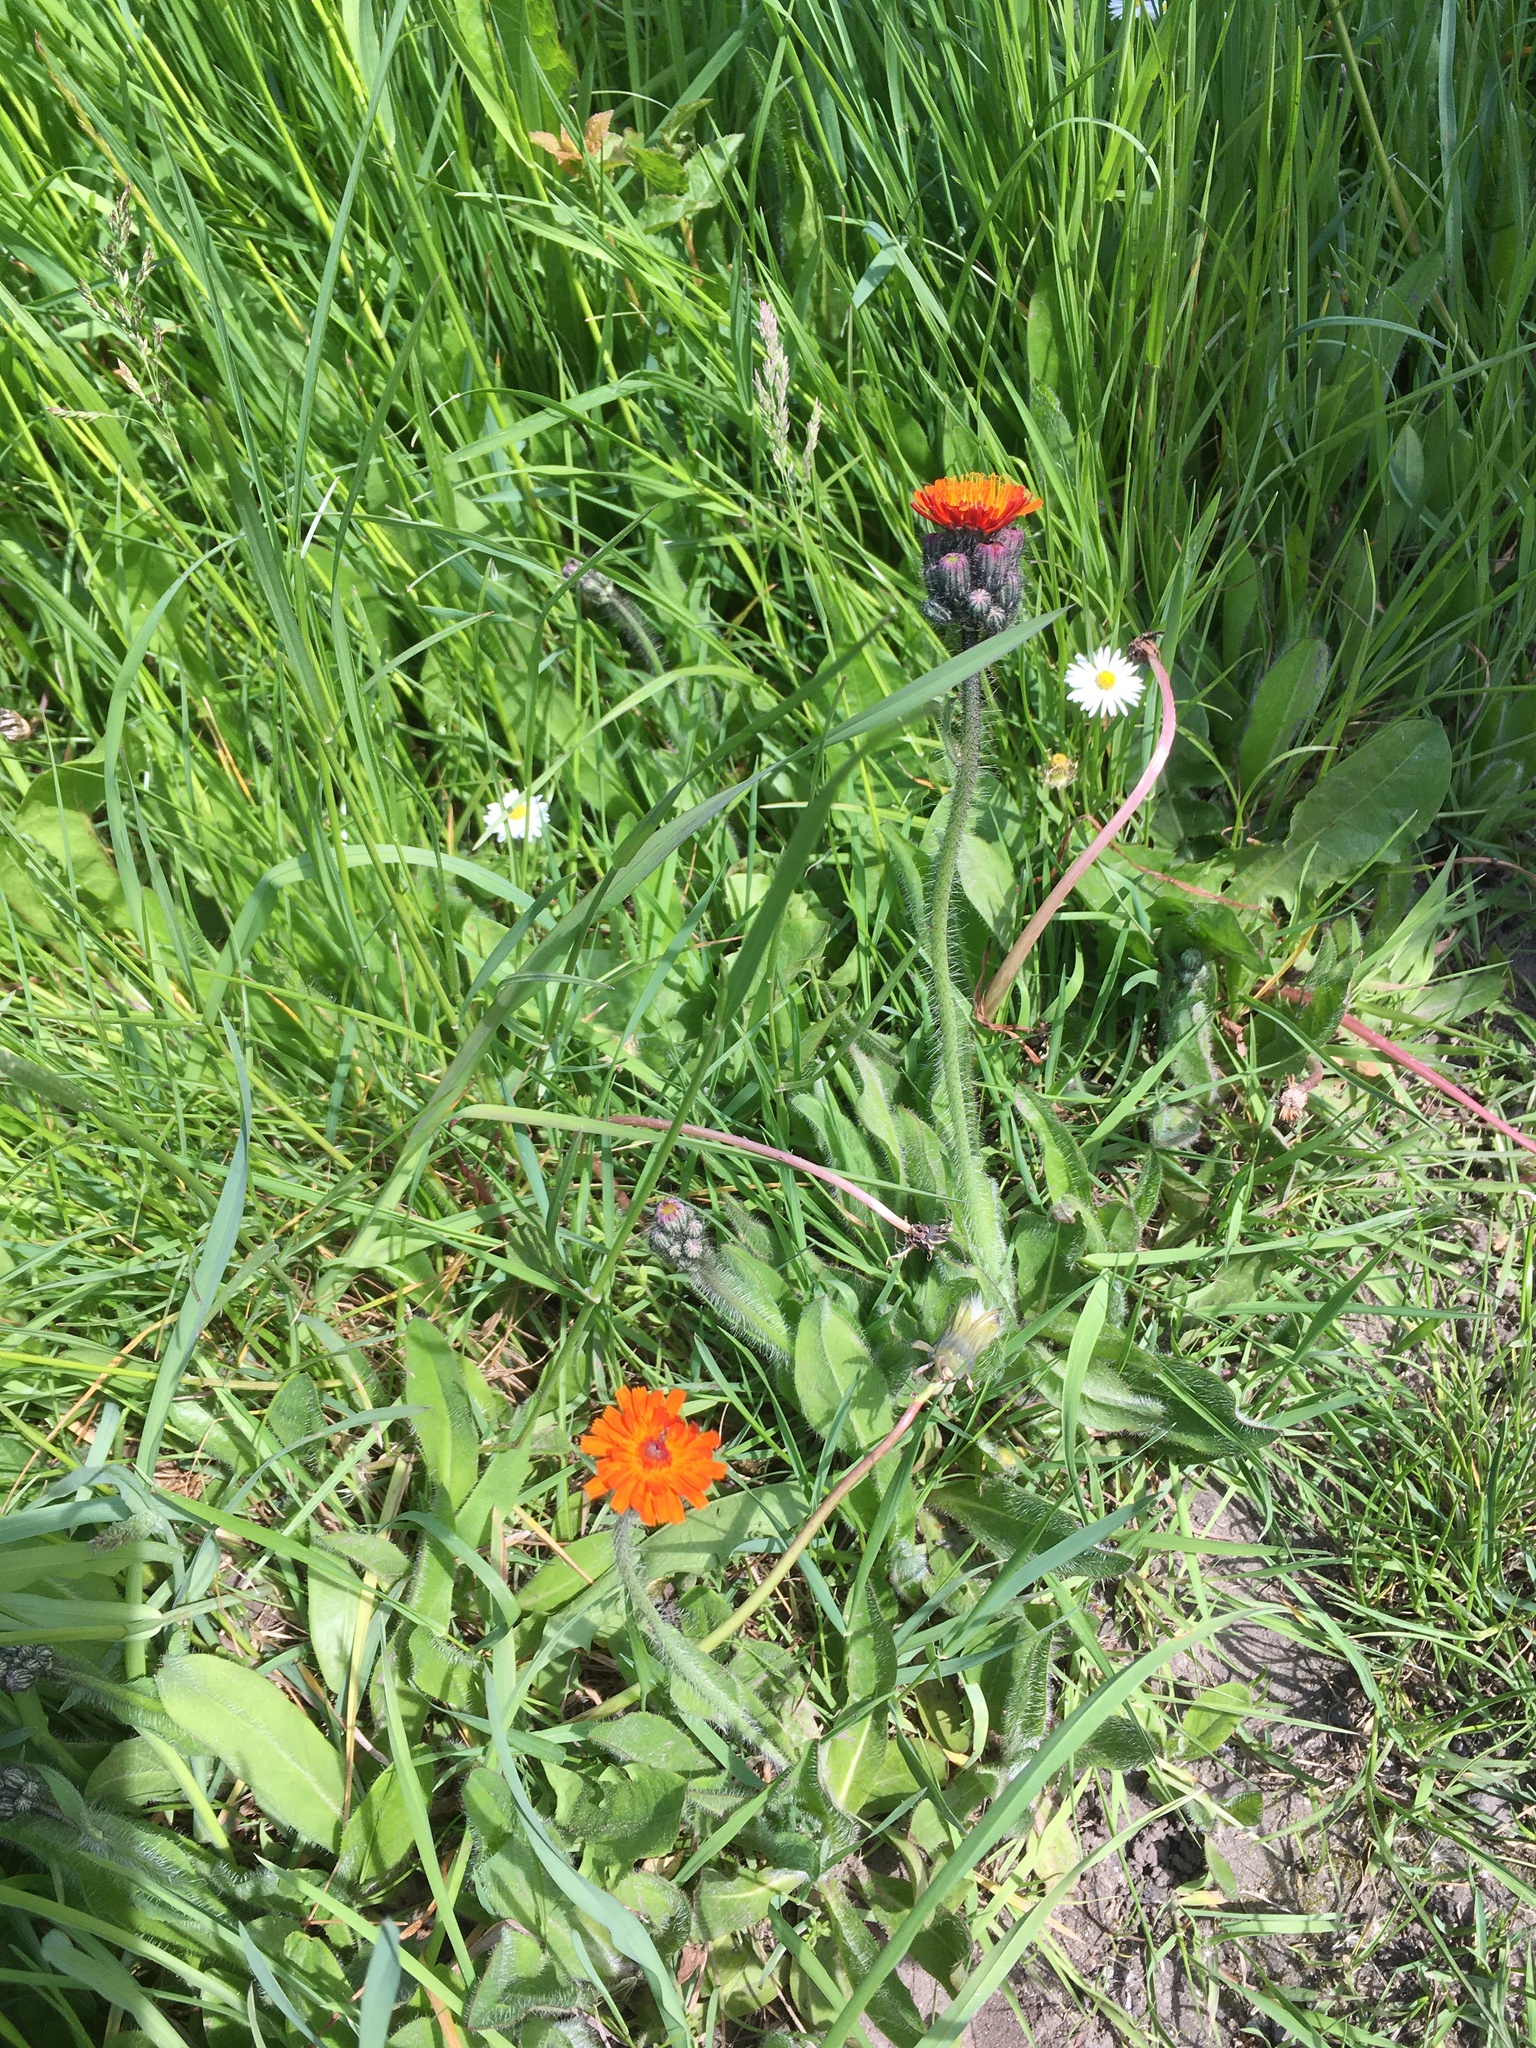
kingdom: Plantae
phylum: Tracheophyta
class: Magnoliopsida
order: Asterales
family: Asteraceae
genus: Pilosella
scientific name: Pilosella aurantiaca
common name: Fox-and-cubs
